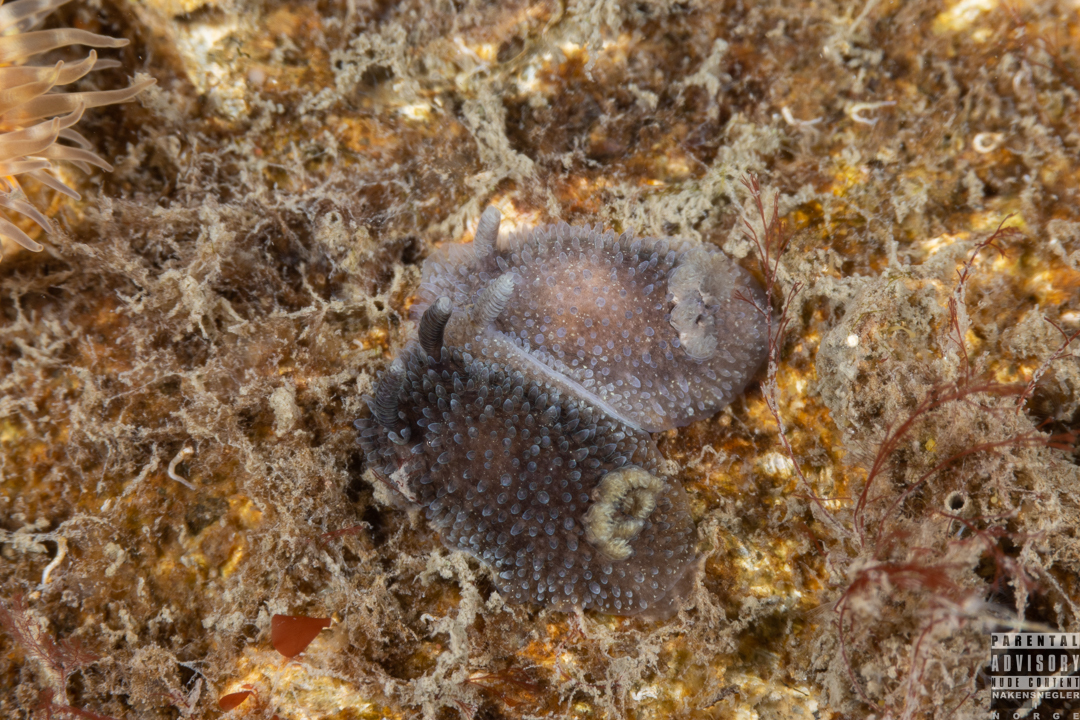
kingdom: Animalia
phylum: Mollusca
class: Gastropoda
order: Nudibranchia
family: Onchidorididae
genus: Acanthodoris
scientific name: Acanthodoris pilosa
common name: Hairy spiny doris
